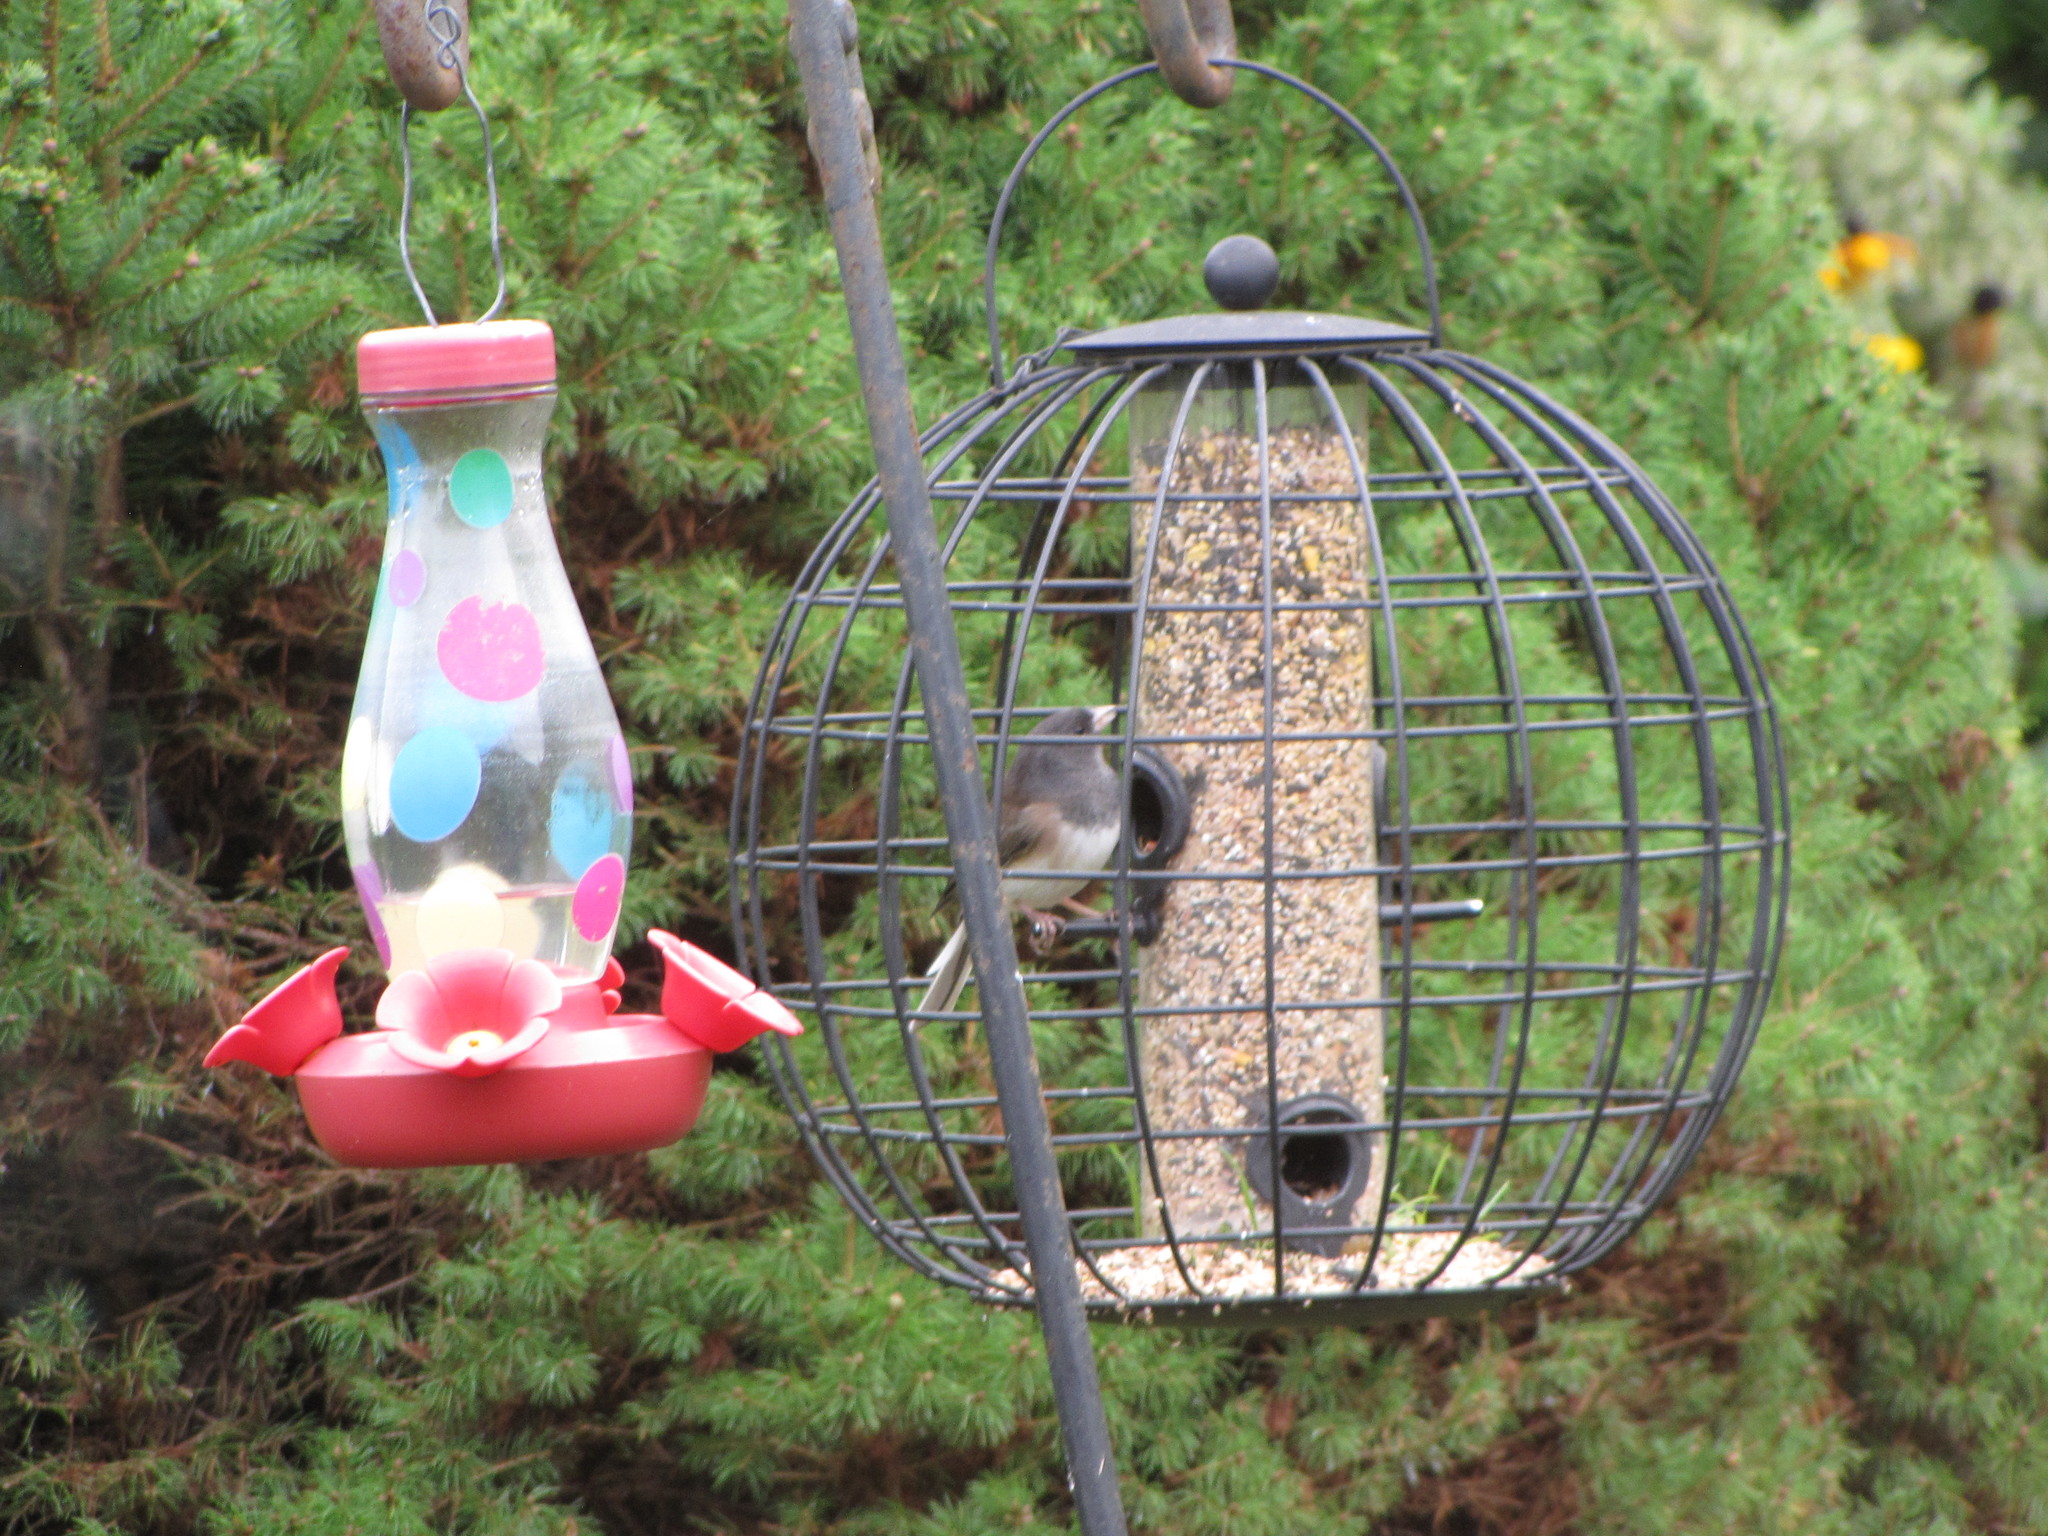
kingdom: Animalia
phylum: Chordata
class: Aves
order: Passeriformes
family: Passerellidae
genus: Junco
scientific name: Junco hyemalis
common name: Dark-eyed junco
